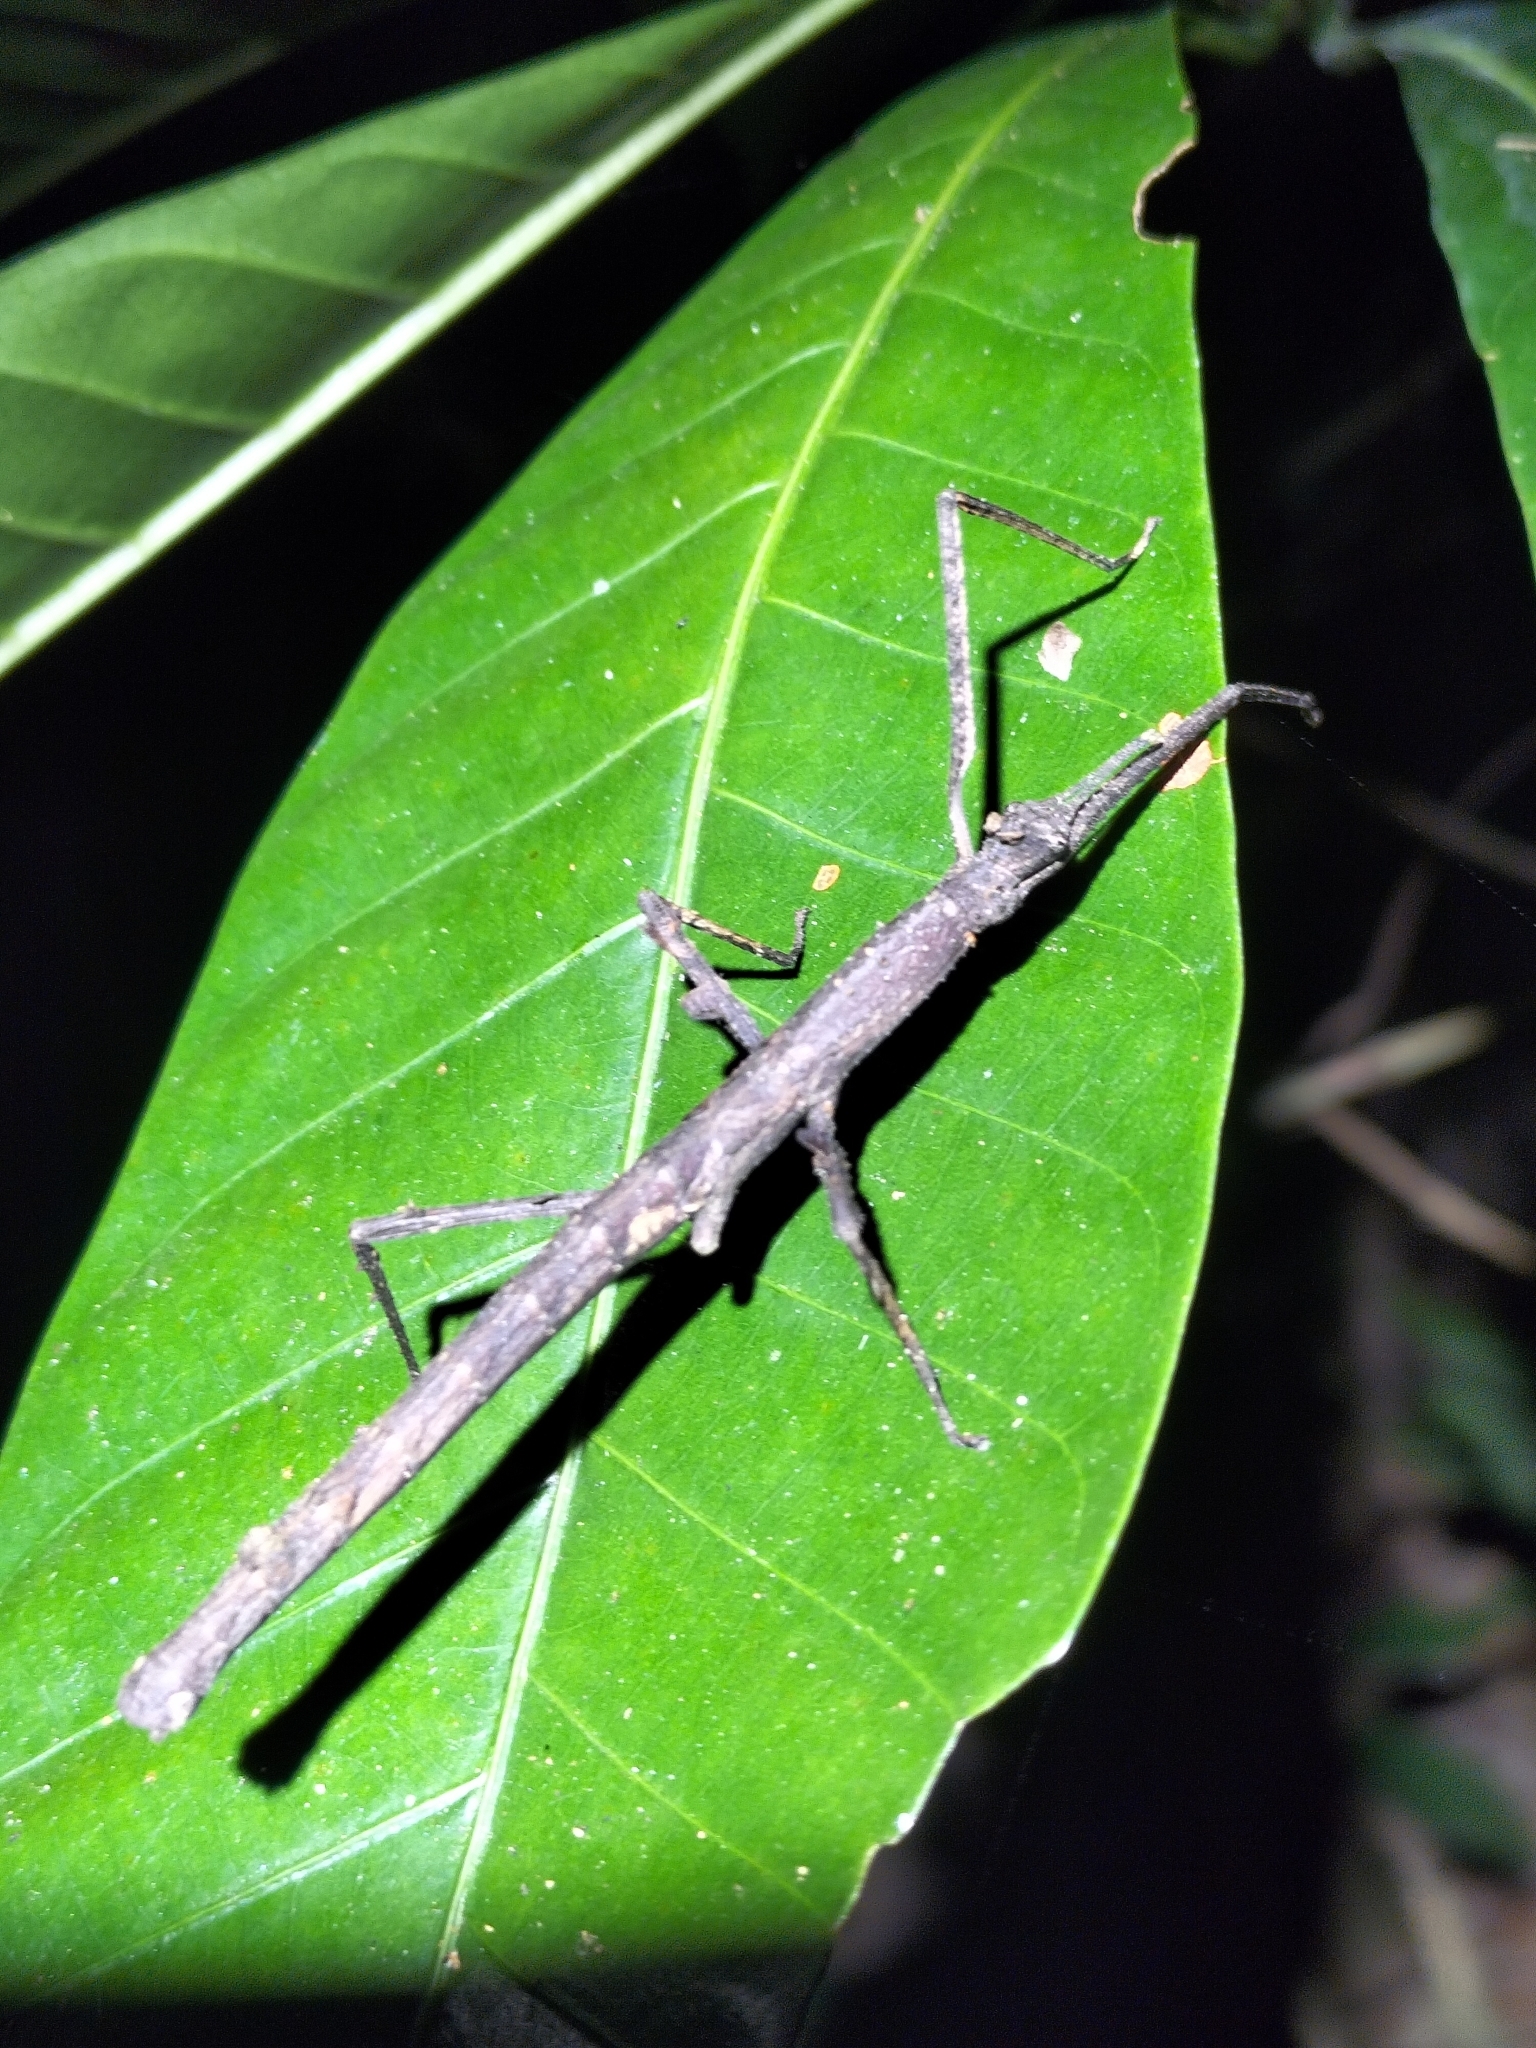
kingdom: Animalia
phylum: Arthropoda
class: Insecta
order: Phasmida
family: Phasmatidae
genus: Onchestus
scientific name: Onchestus rentzi
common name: Rentz's stick-insect
